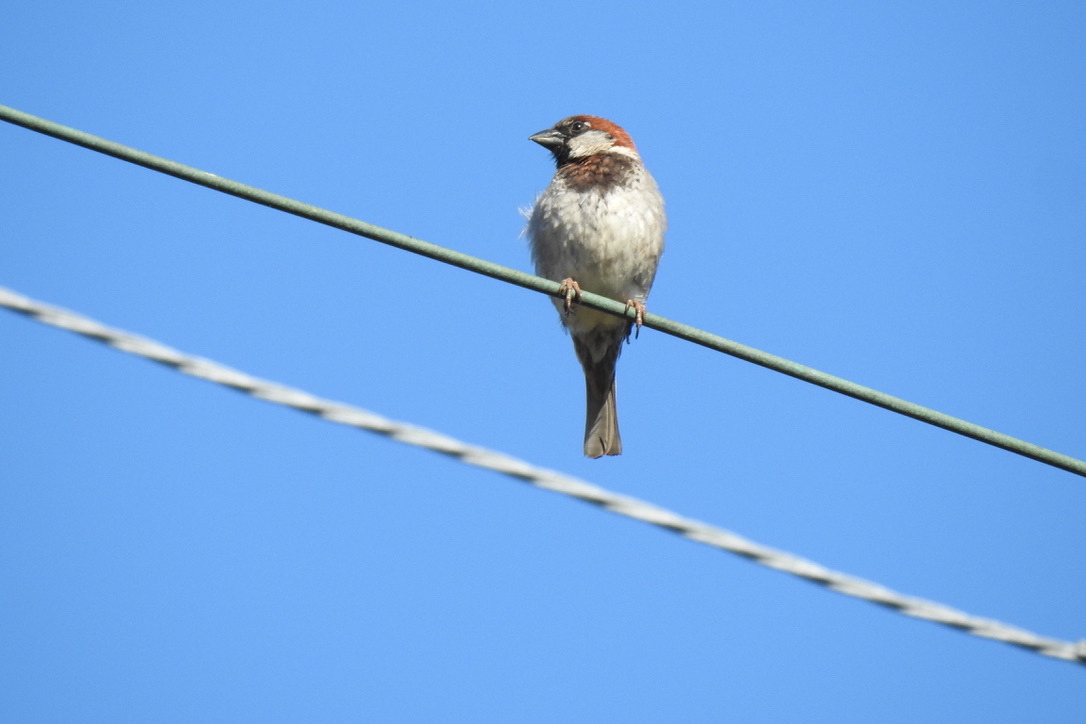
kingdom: Animalia
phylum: Chordata
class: Aves
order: Passeriformes
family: Passeridae
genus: Passer
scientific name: Passer domesticus
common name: House sparrow
